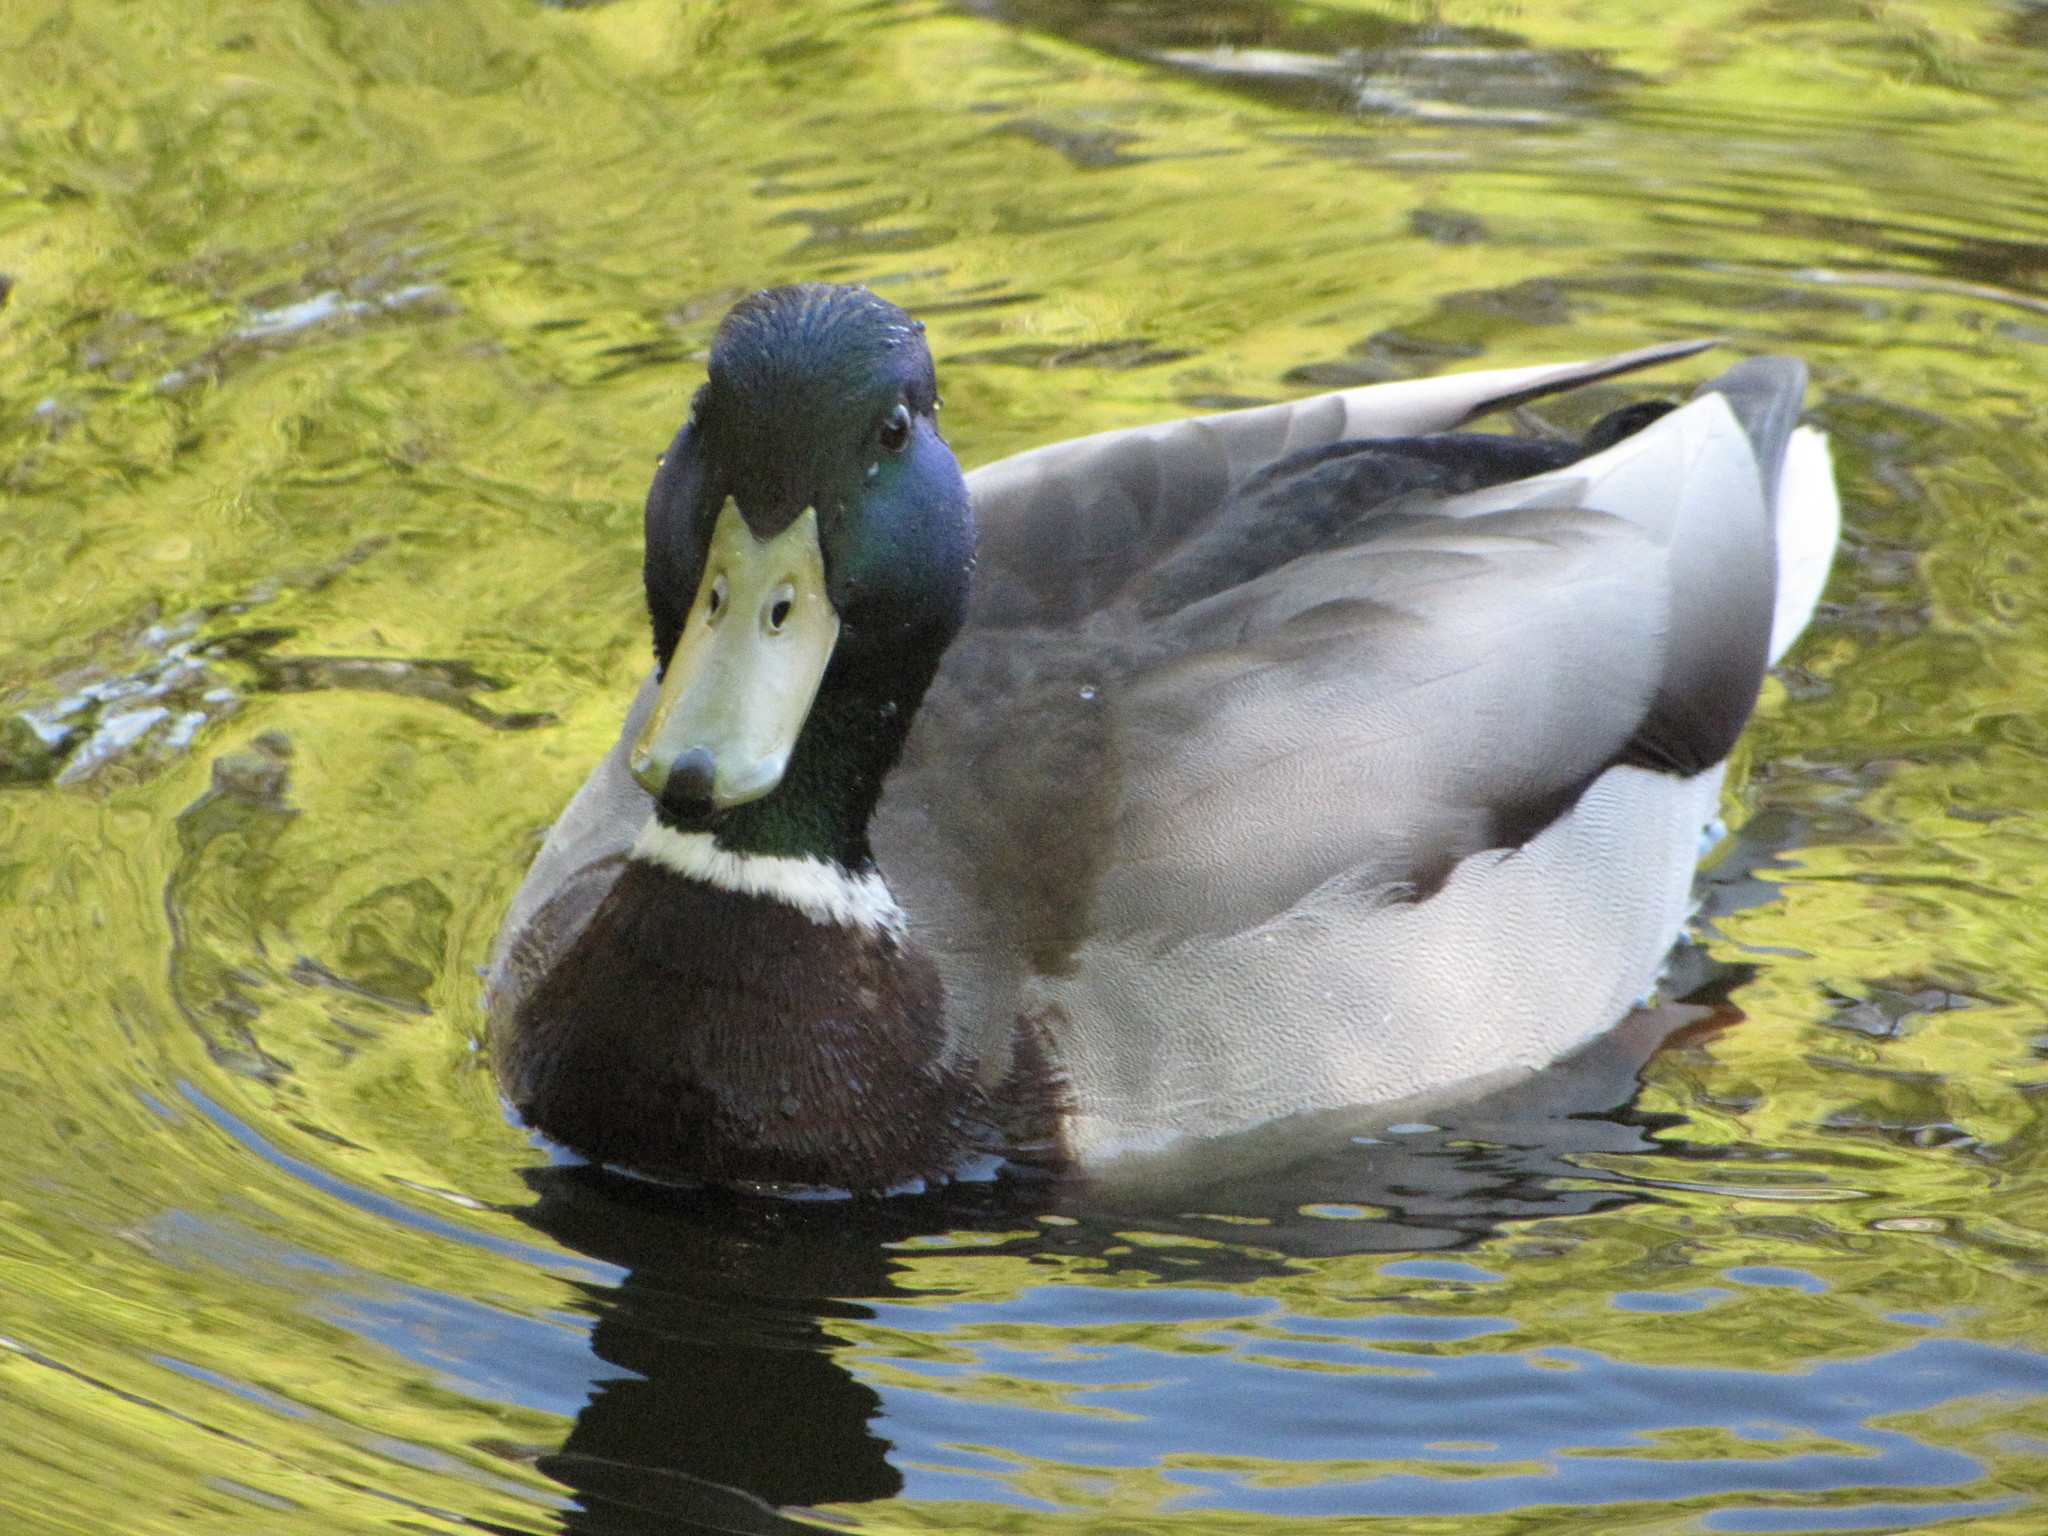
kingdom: Animalia
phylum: Chordata
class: Aves
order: Anseriformes
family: Anatidae
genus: Anas
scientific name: Anas platyrhynchos
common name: Mallard
